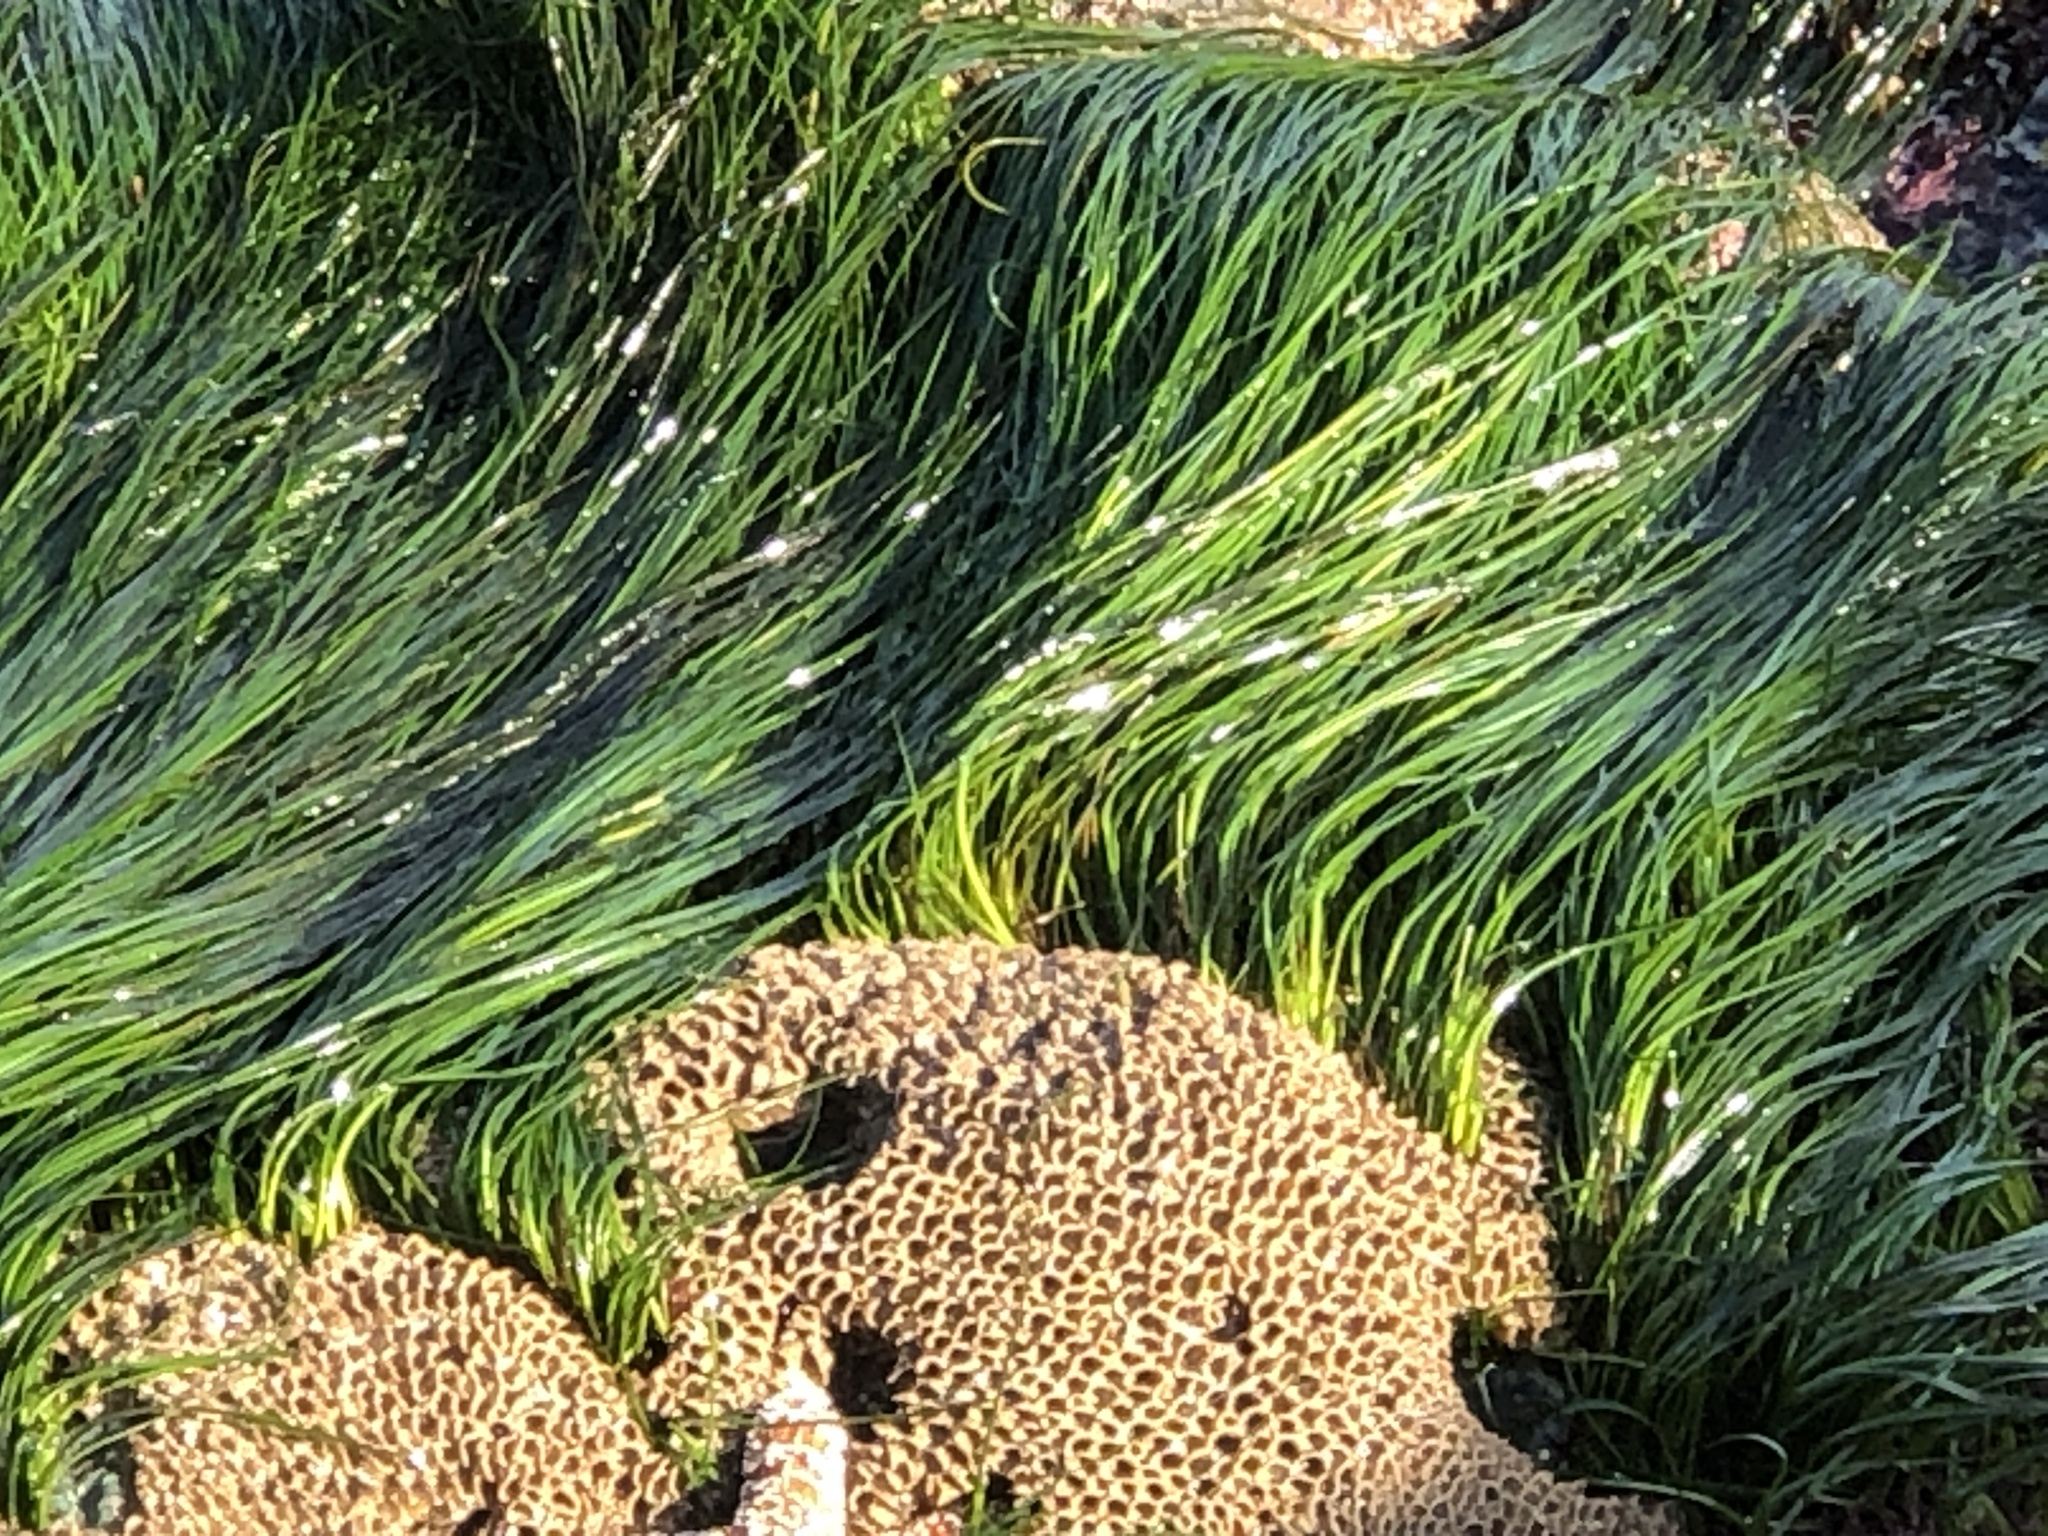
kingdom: Animalia
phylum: Annelida
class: Polychaeta
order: Sabellida
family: Sabellariidae
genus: Phragmatopoma
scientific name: Phragmatopoma californica
